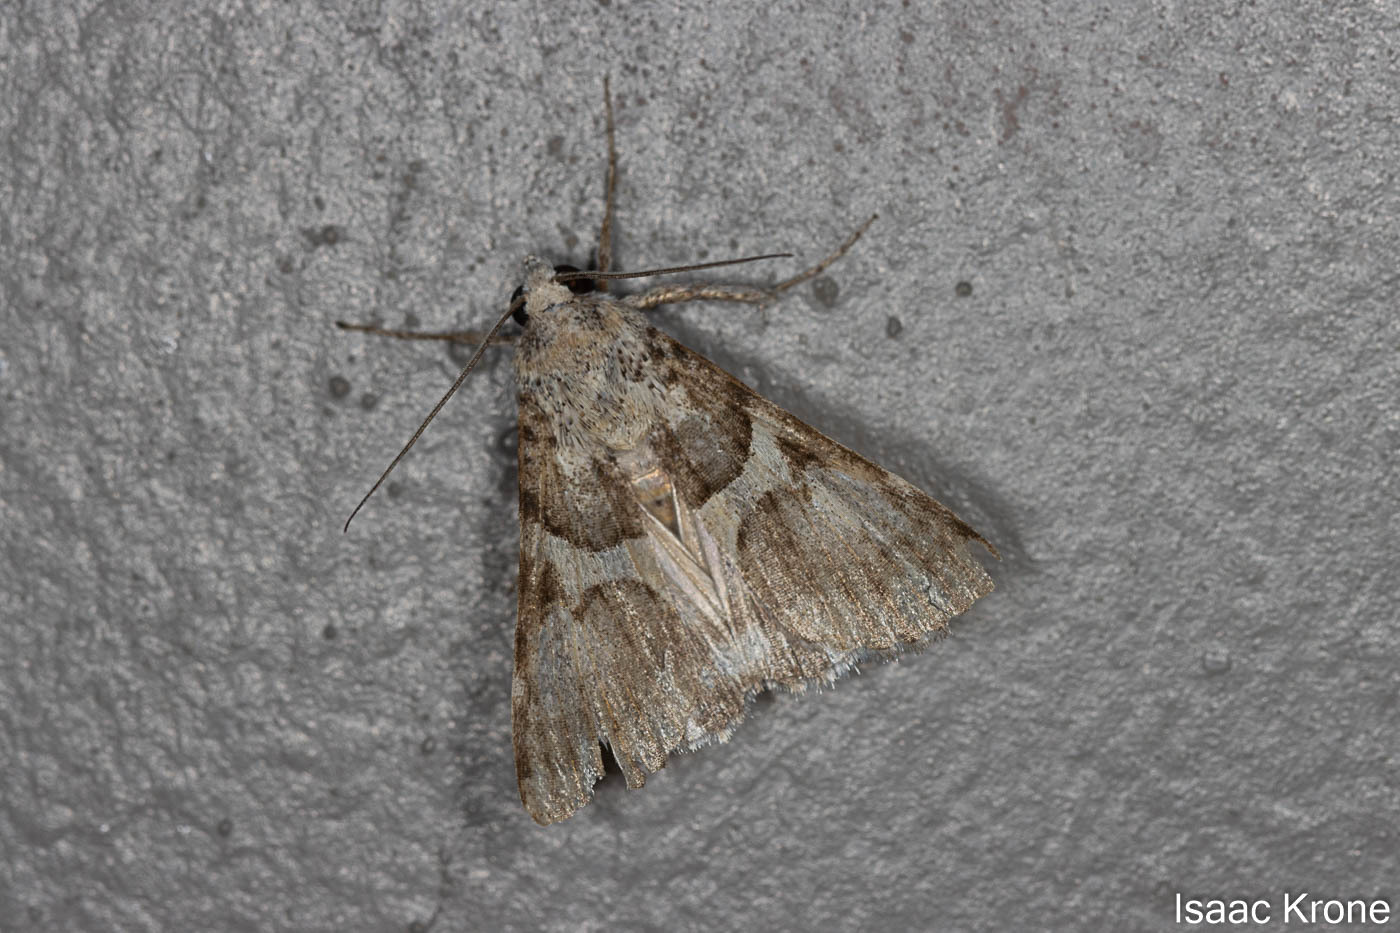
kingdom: Animalia
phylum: Arthropoda
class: Insecta
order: Lepidoptera
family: Erebidae
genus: Melipotis
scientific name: Melipotis jucunda
